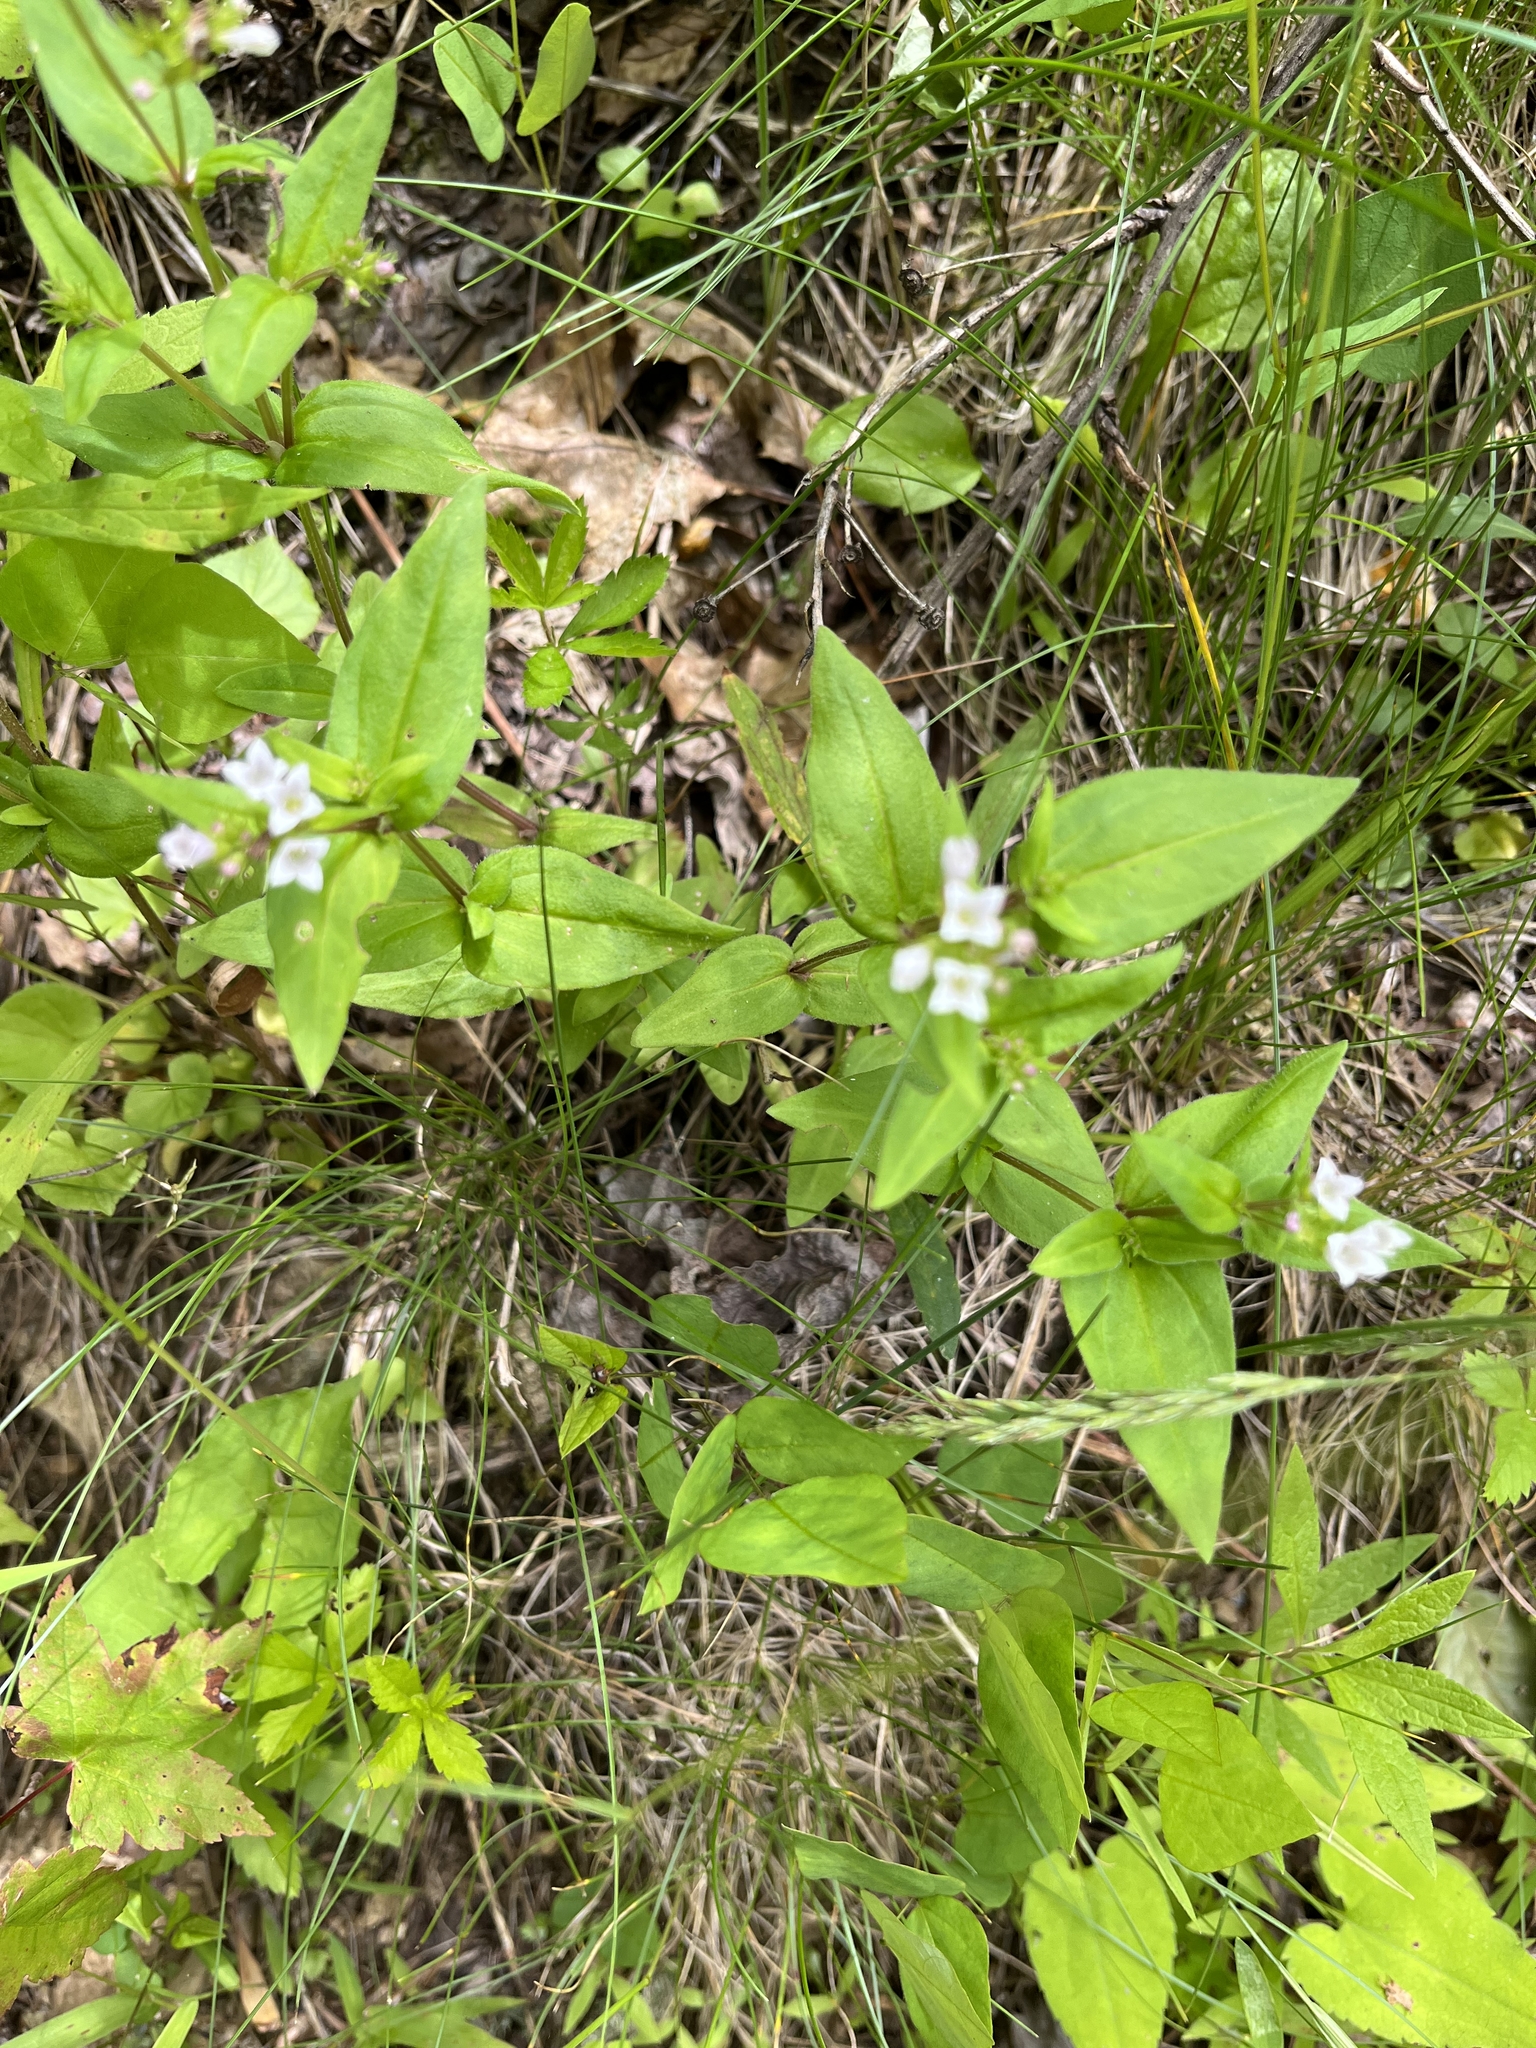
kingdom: Plantae
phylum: Tracheophyta
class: Magnoliopsida
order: Gentianales
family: Rubiaceae
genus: Houstonia
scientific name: Houstonia purpurea
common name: Summer bluet
